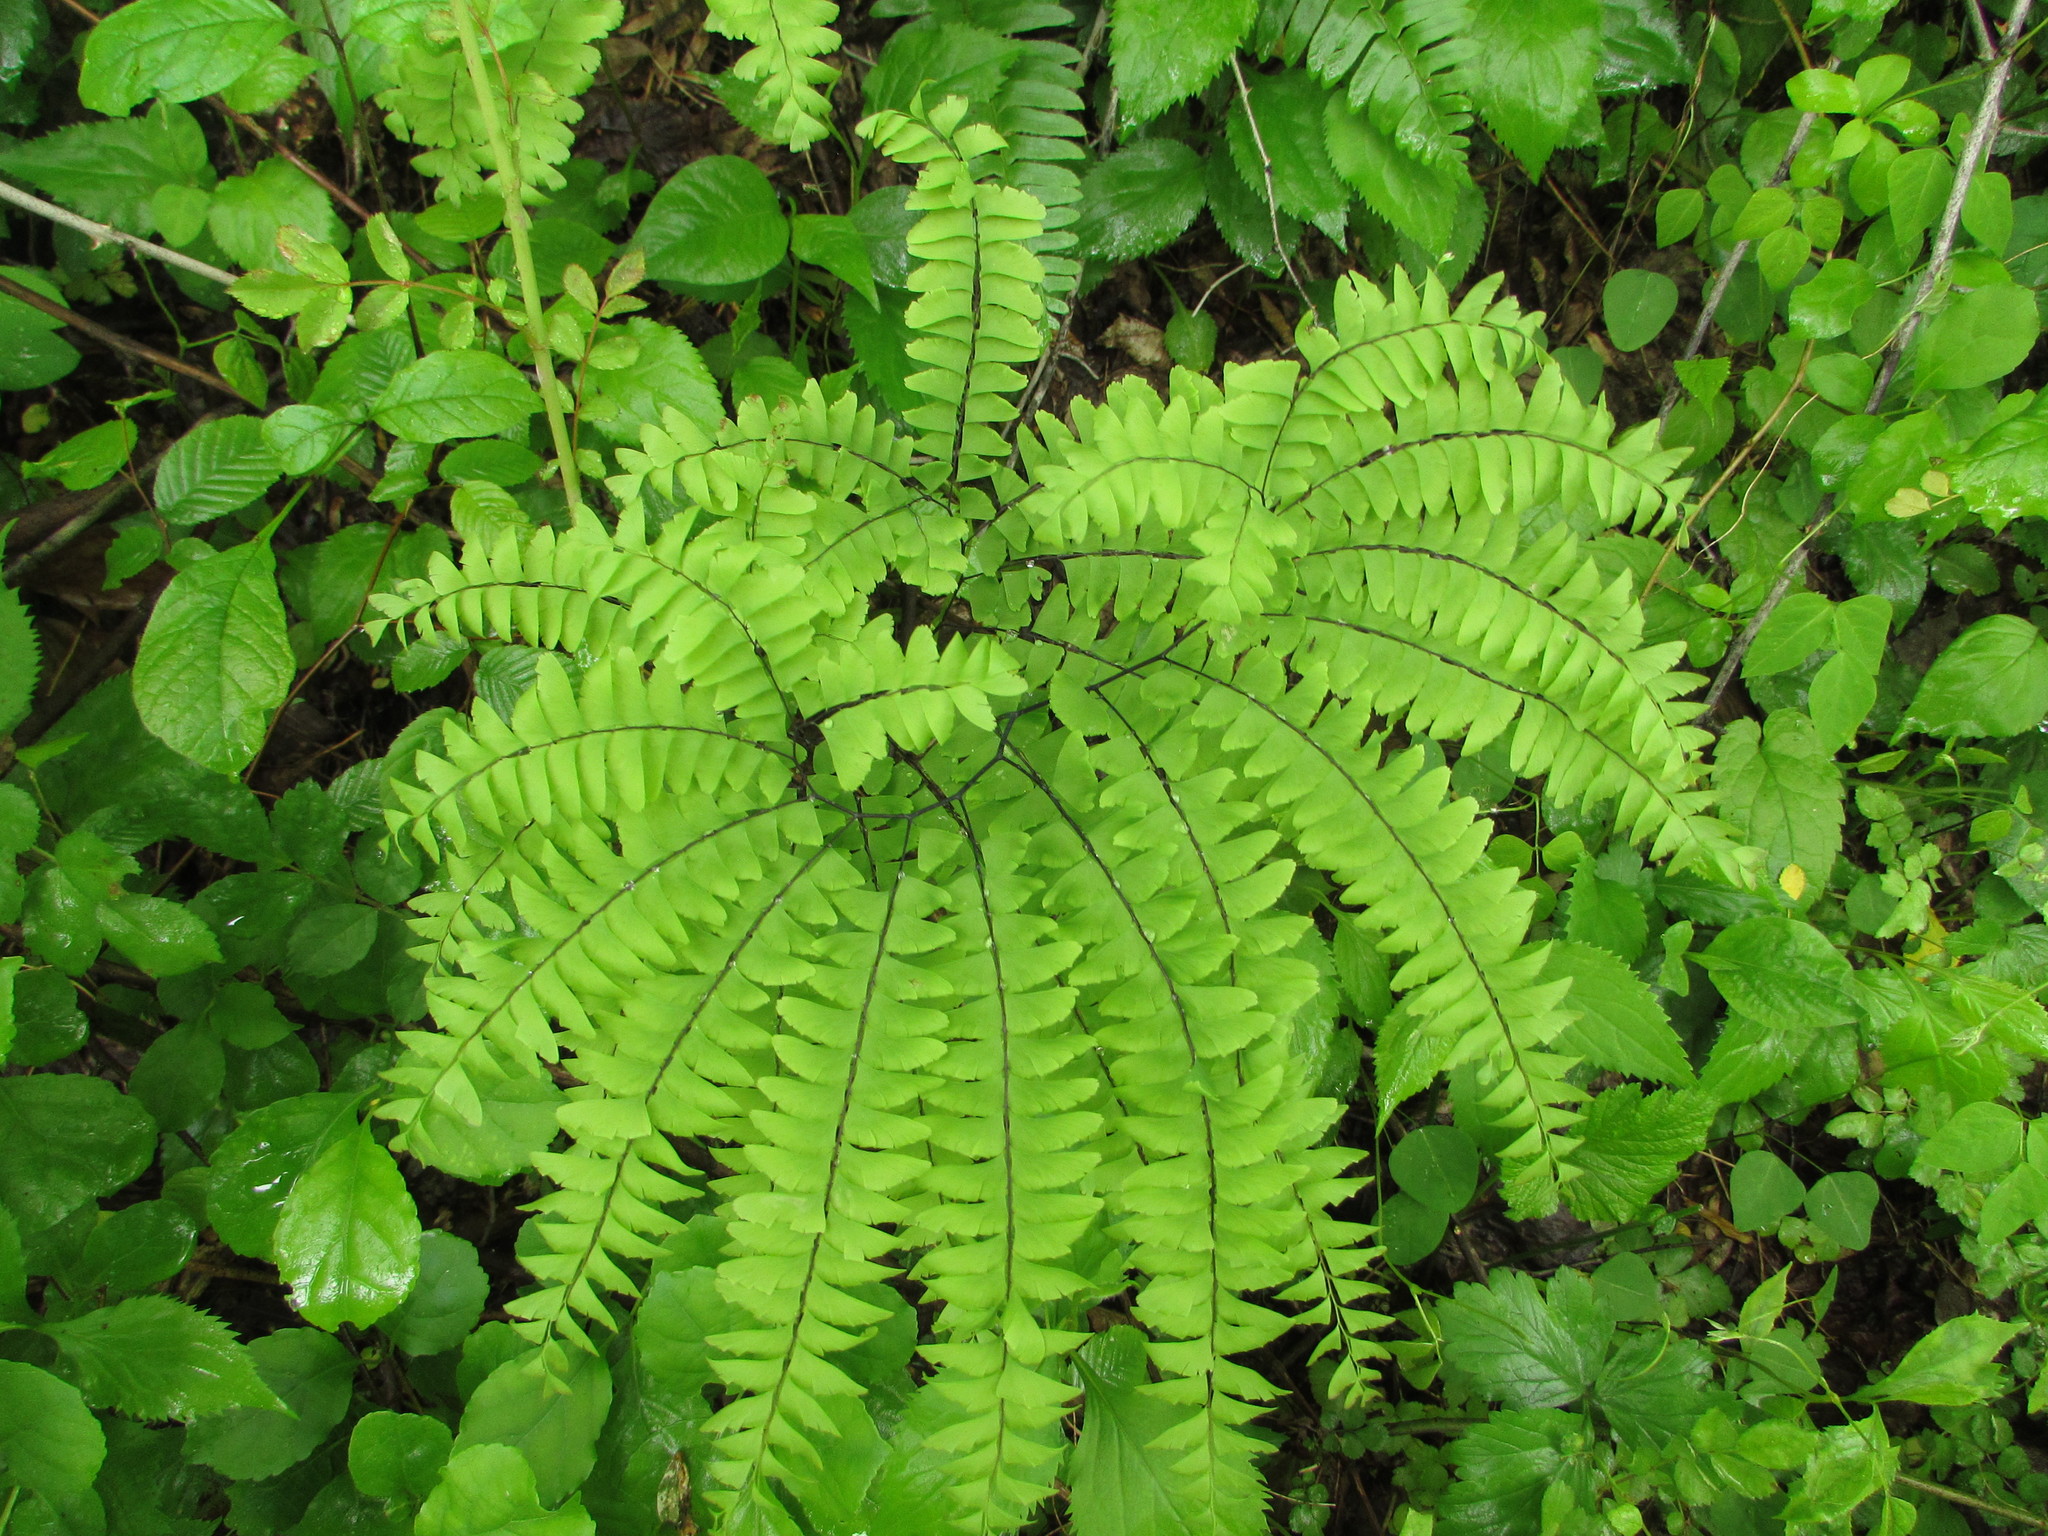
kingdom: Plantae
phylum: Tracheophyta
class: Polypodiopsida
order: Polypodiales
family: Pteridaceae
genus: Adiantum
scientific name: Adiantum pedatum
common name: Five-finger fern
